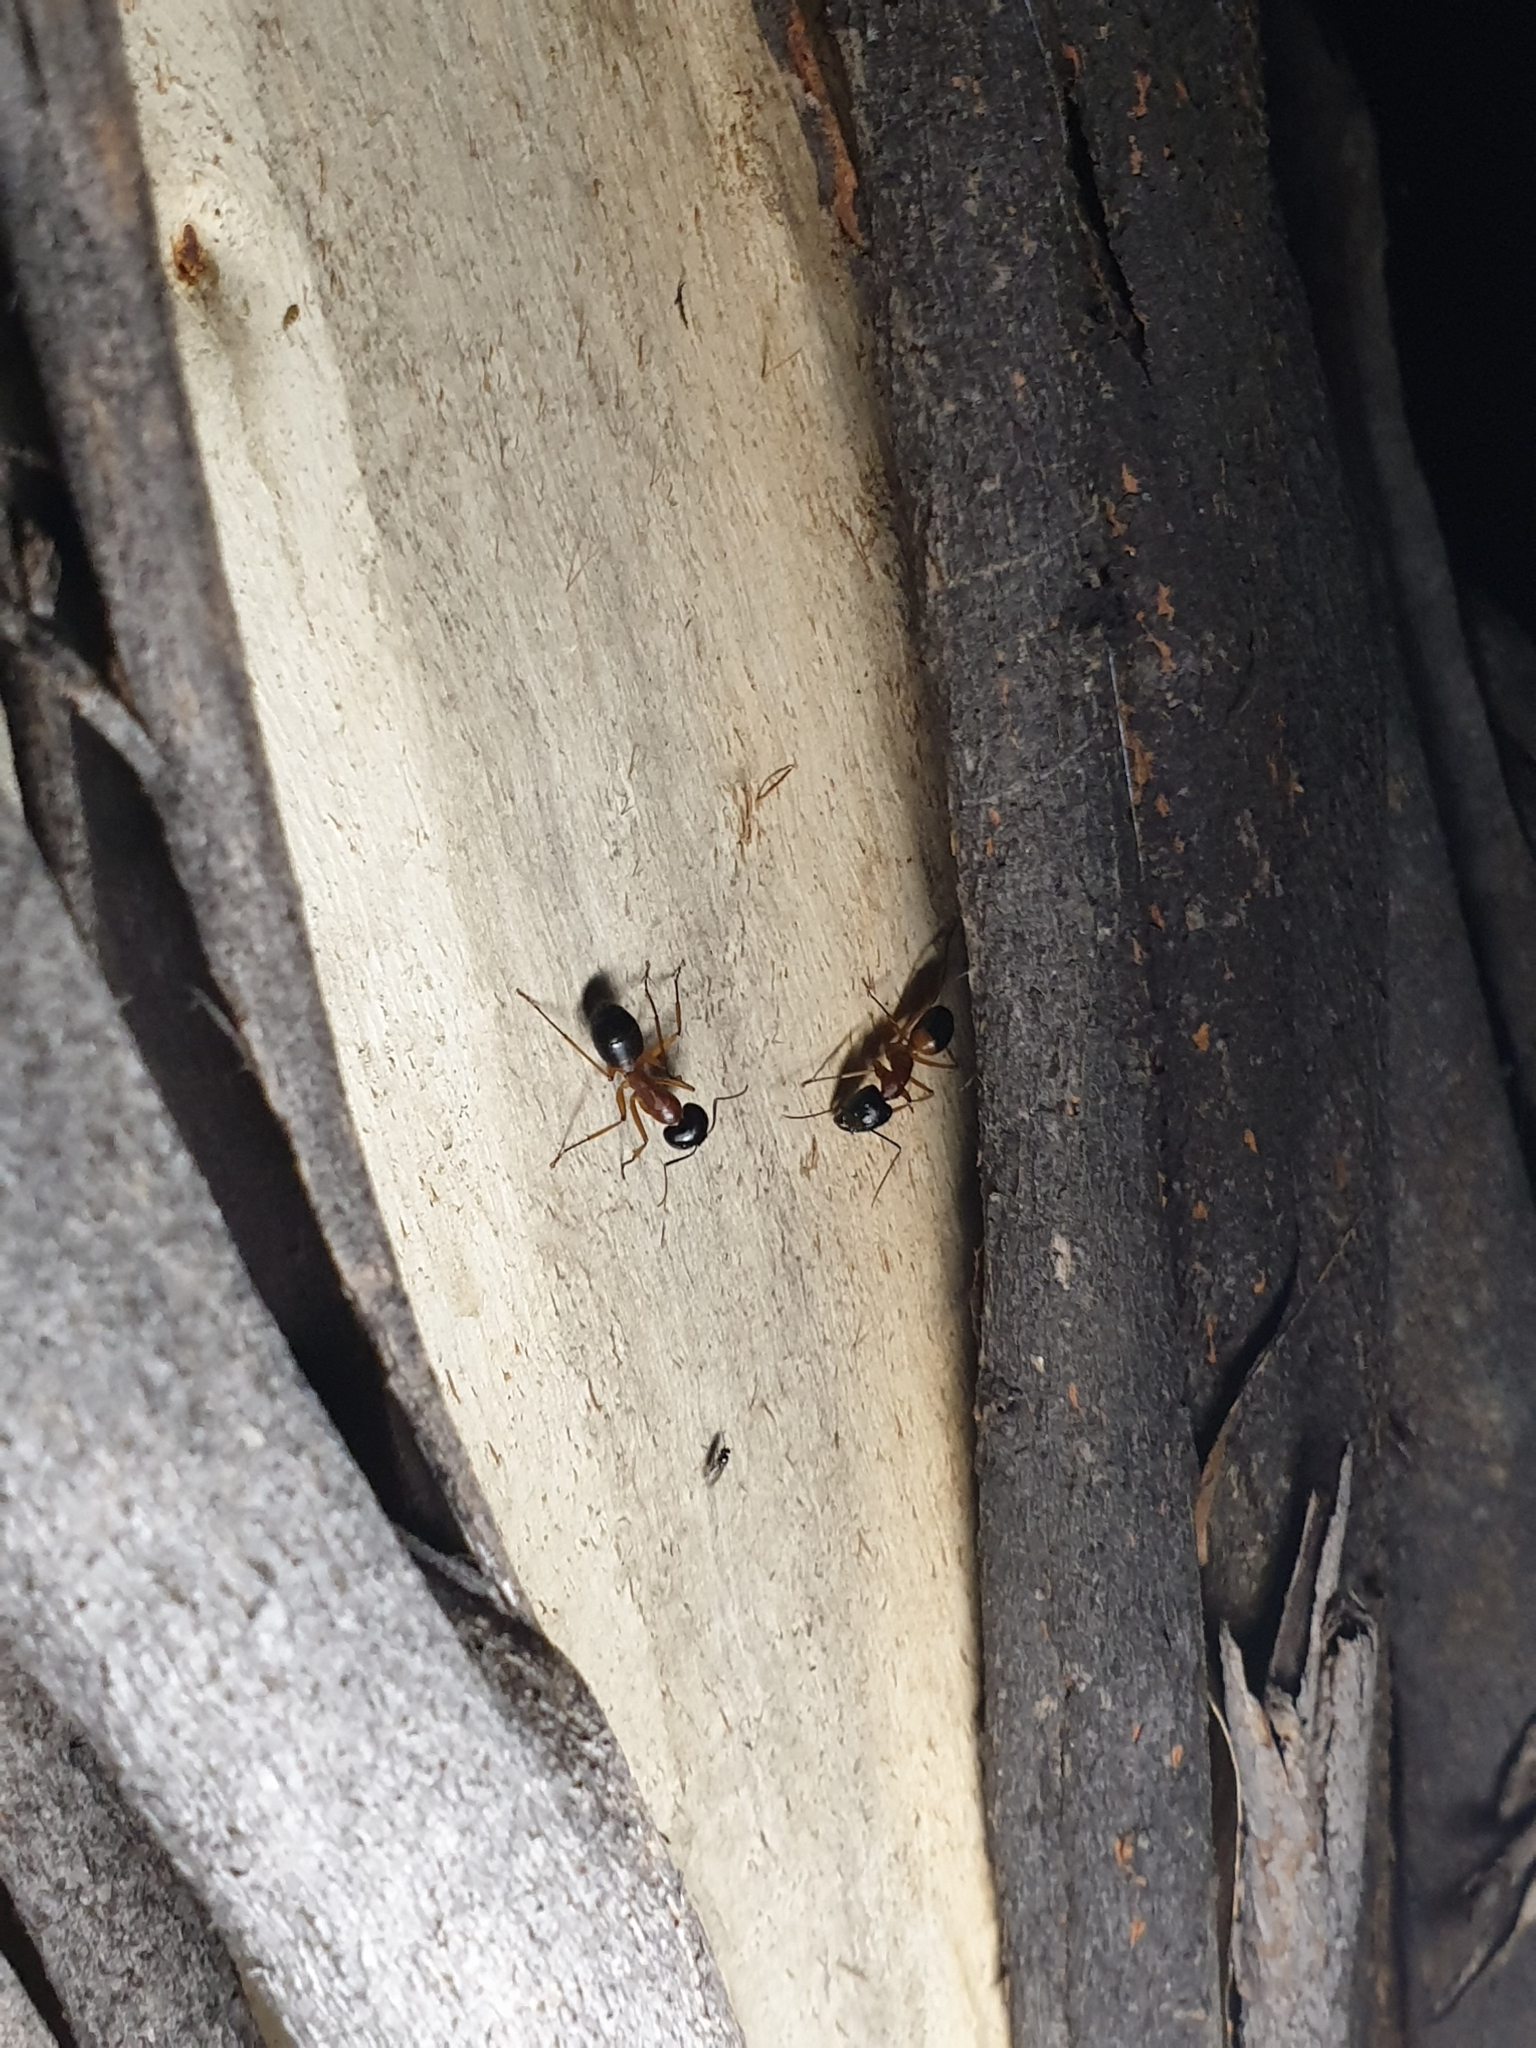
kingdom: Animalia
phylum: Arthropoda
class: Insecta
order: Hymenoptera
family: Formicidae
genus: Camponotus
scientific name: Camponotus consobrinus
